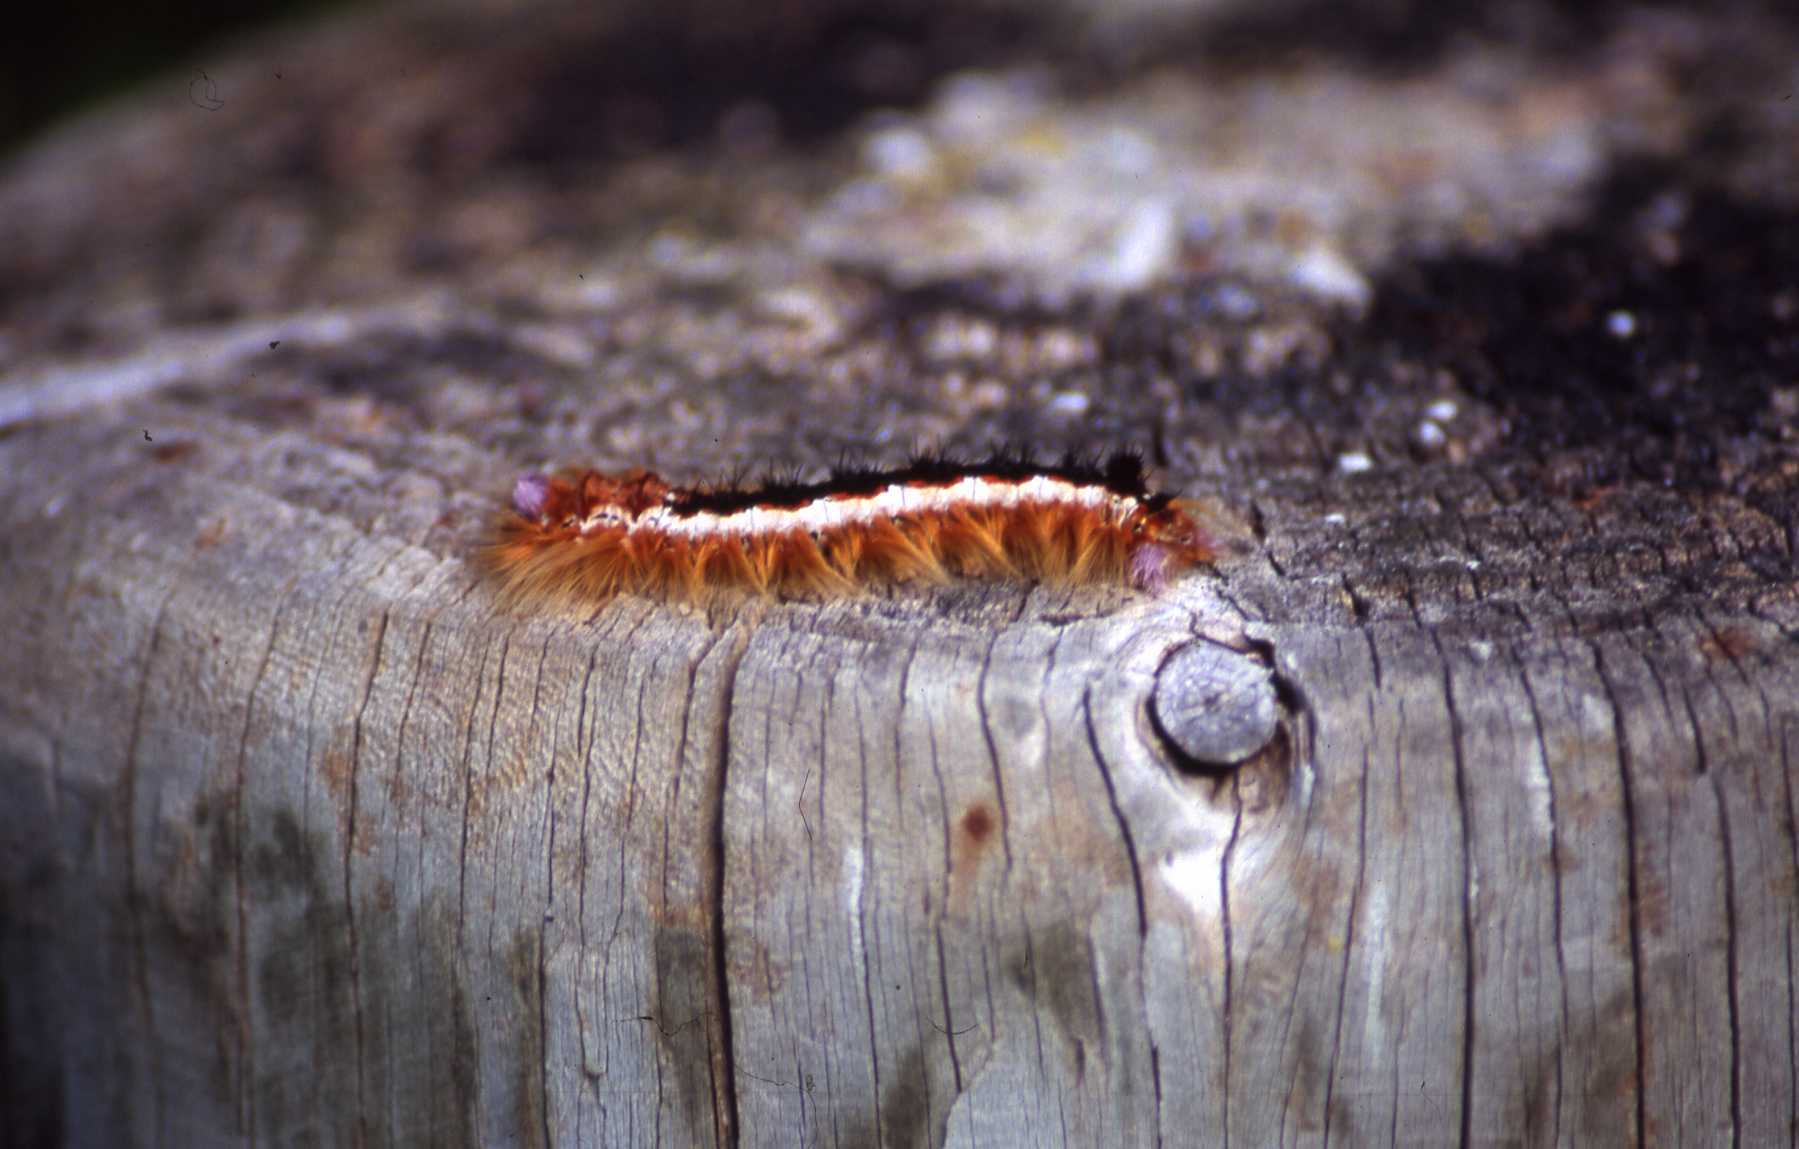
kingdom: Animalia
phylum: Arthropoda
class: Insecta
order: Lepidoptera
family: Lasiocampidae
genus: Eutricha
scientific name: Eutricha capensis
